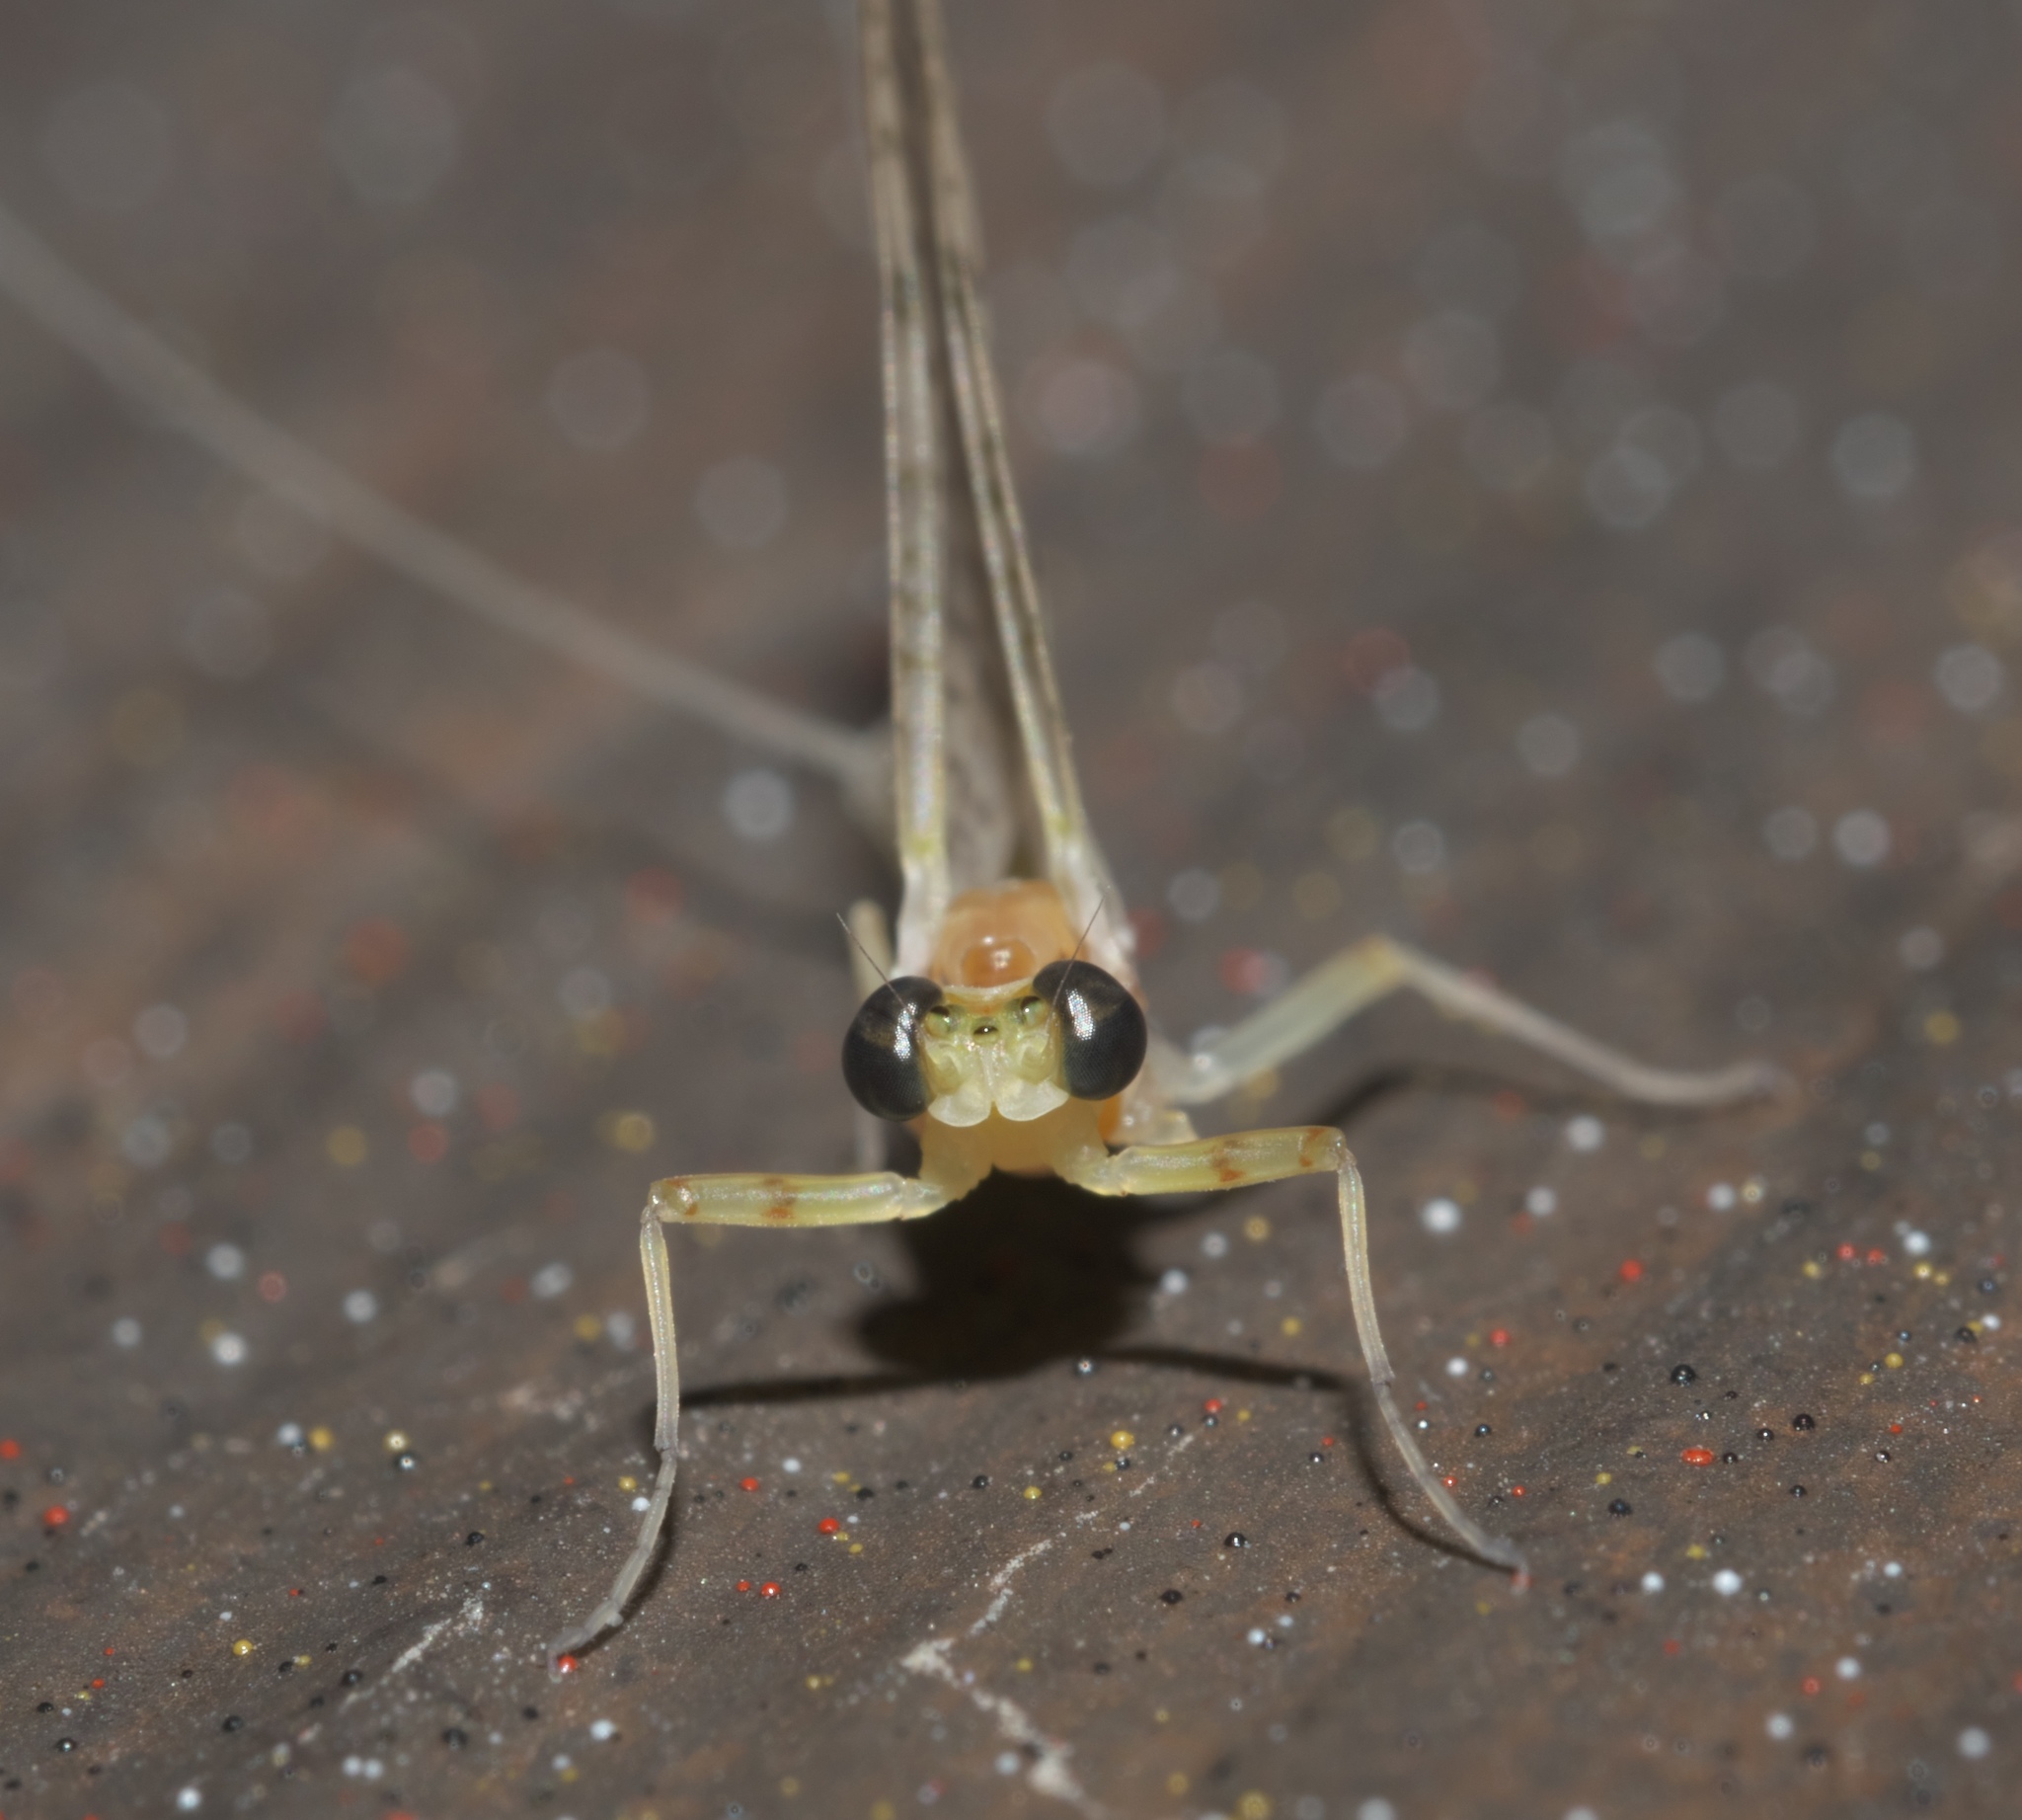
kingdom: Animalia
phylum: Arthropoda
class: Insecta
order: Ephemeroptera
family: Heptageniidae
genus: Maccaffertium
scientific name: Maccaffertium mexicanum
